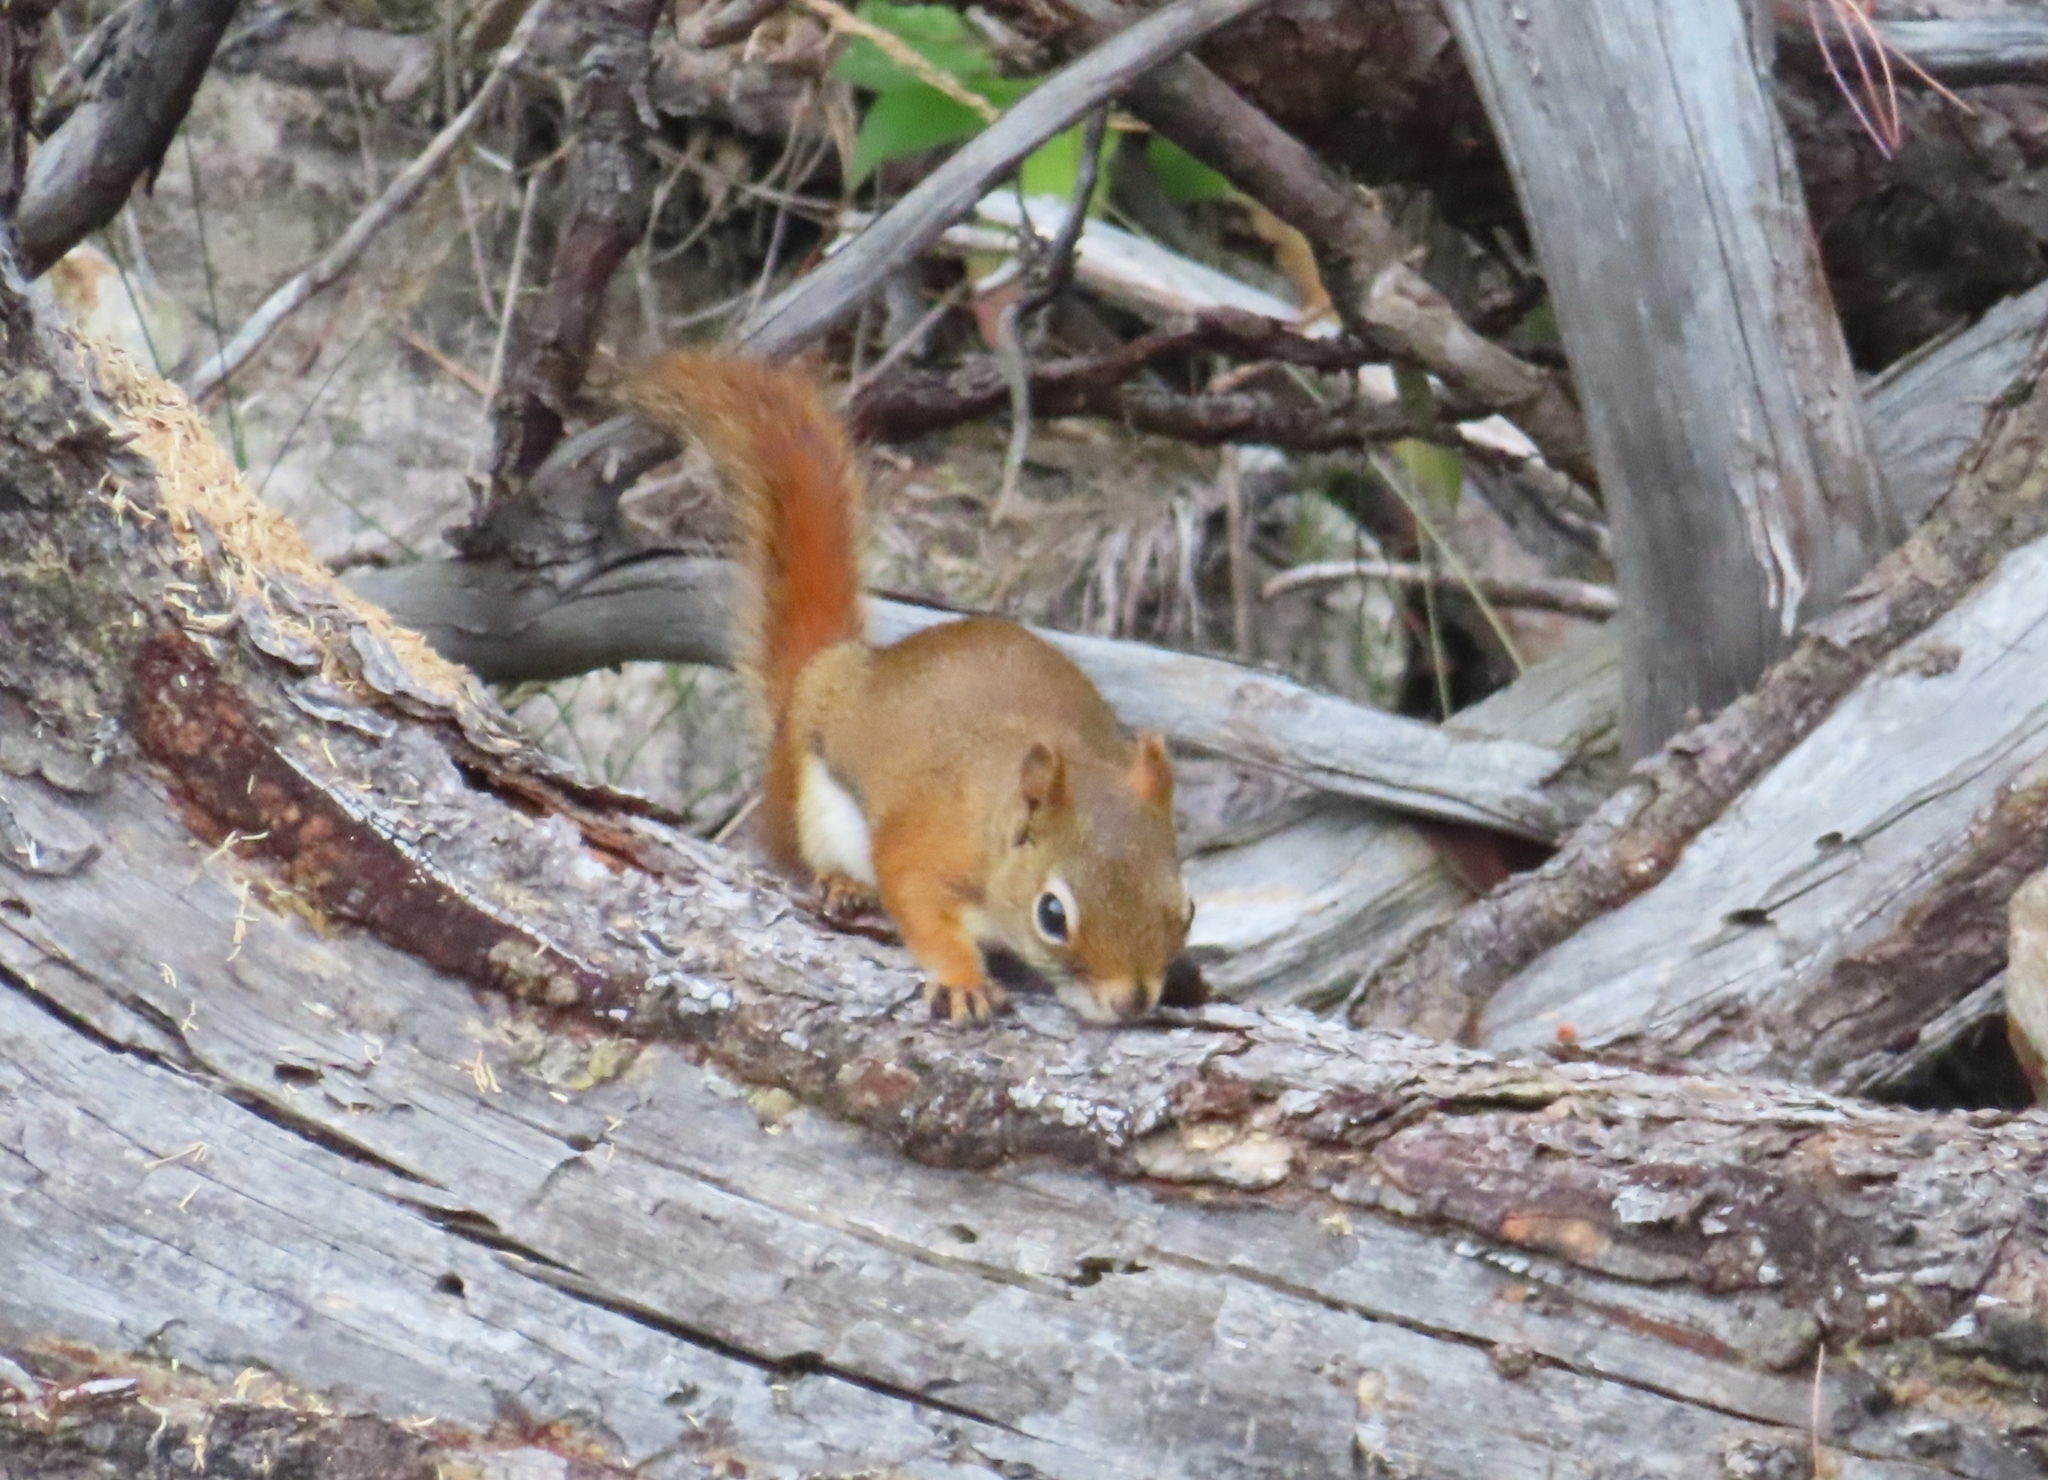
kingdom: Animalia
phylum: Chordata
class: Mammalia
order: Rodentia
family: Sciuridae
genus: Tamiasciurus
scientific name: Tamiasciurus hudsonicus
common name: Red squirrel
